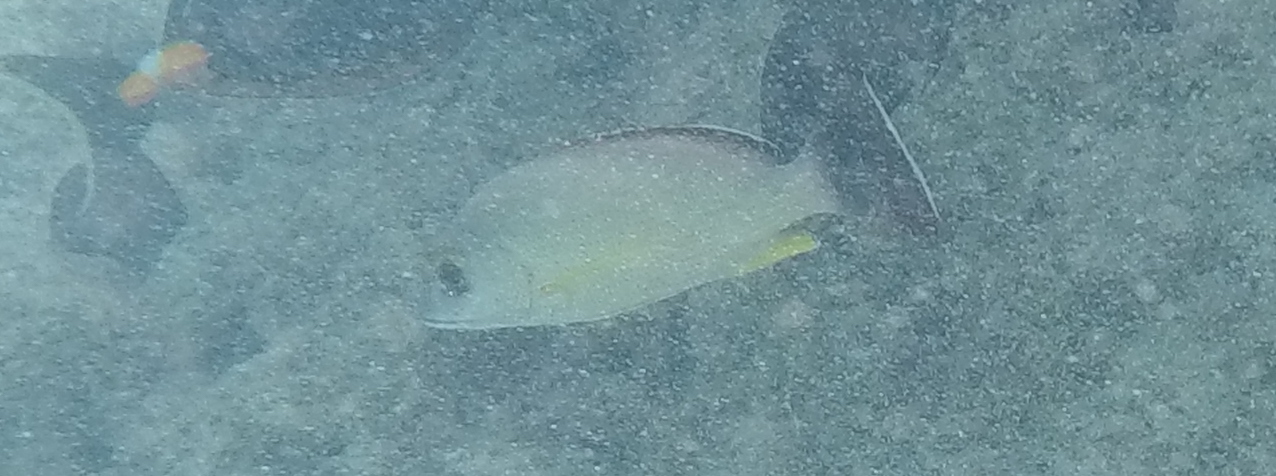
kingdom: Animalia
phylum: Chordata
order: Perciformes
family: Lutjanidae
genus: Lutjanus
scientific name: Lutjanus fulvus
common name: Blacktail snapper
